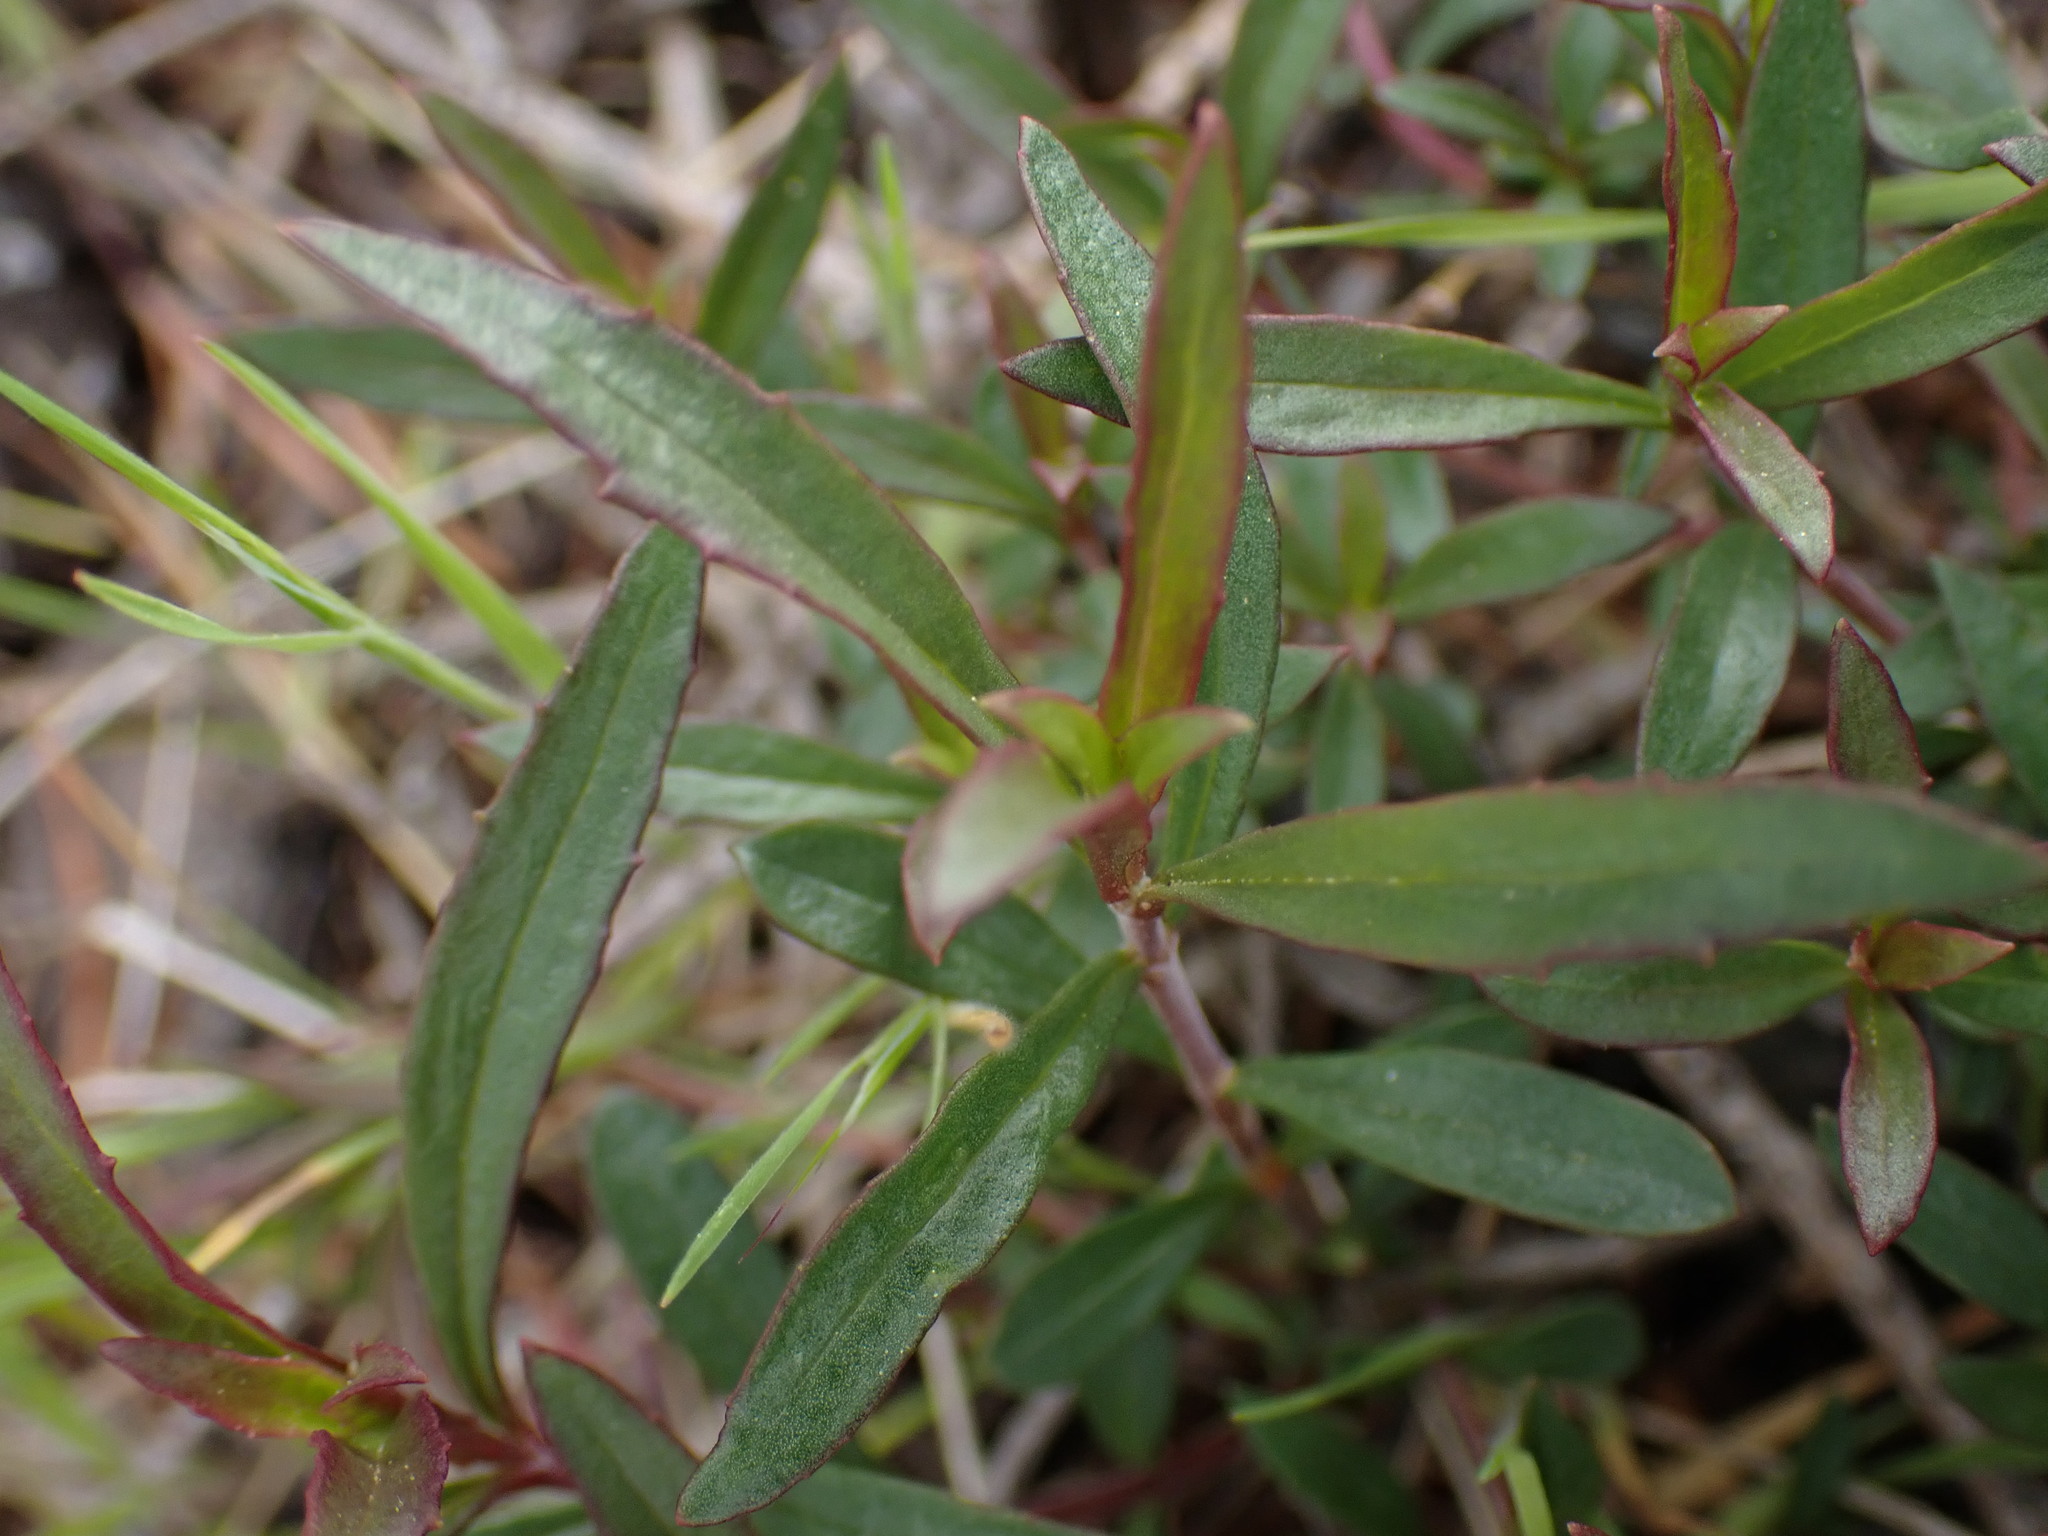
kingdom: Plantae
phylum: Tracheophyta
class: Magnoliopsida
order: Lamiales
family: Plantaginaceae
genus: Penstemon
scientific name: Penstemon fruticosus
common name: Bush penstemon
